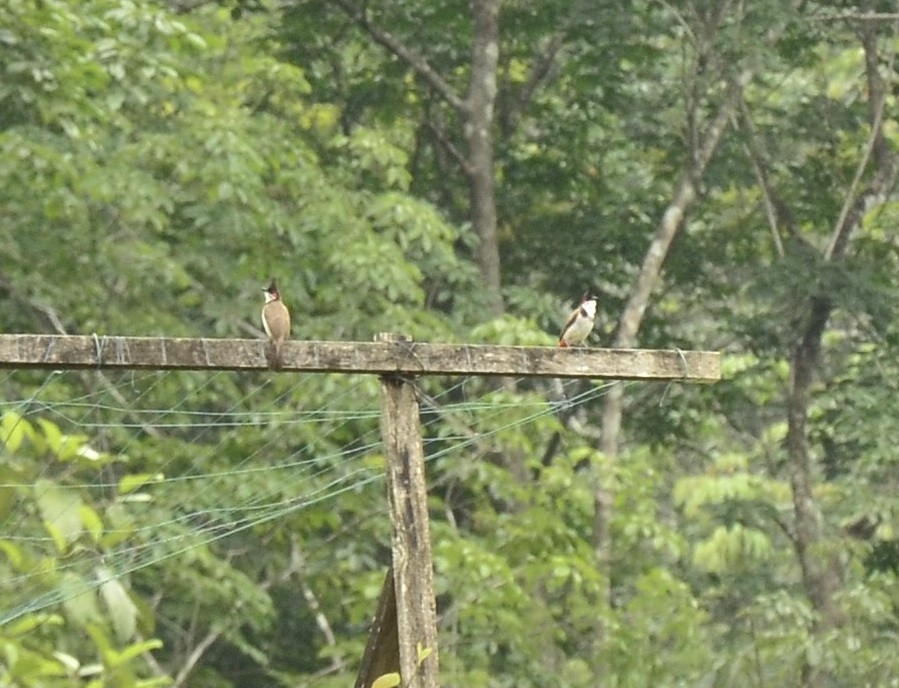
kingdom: Animalia
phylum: Chordata
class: Aves
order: Passeriformes
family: Pycnonotidae
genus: Pycnonotus
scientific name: Pycnonotus jocosus
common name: Red-whiskered bulbul
